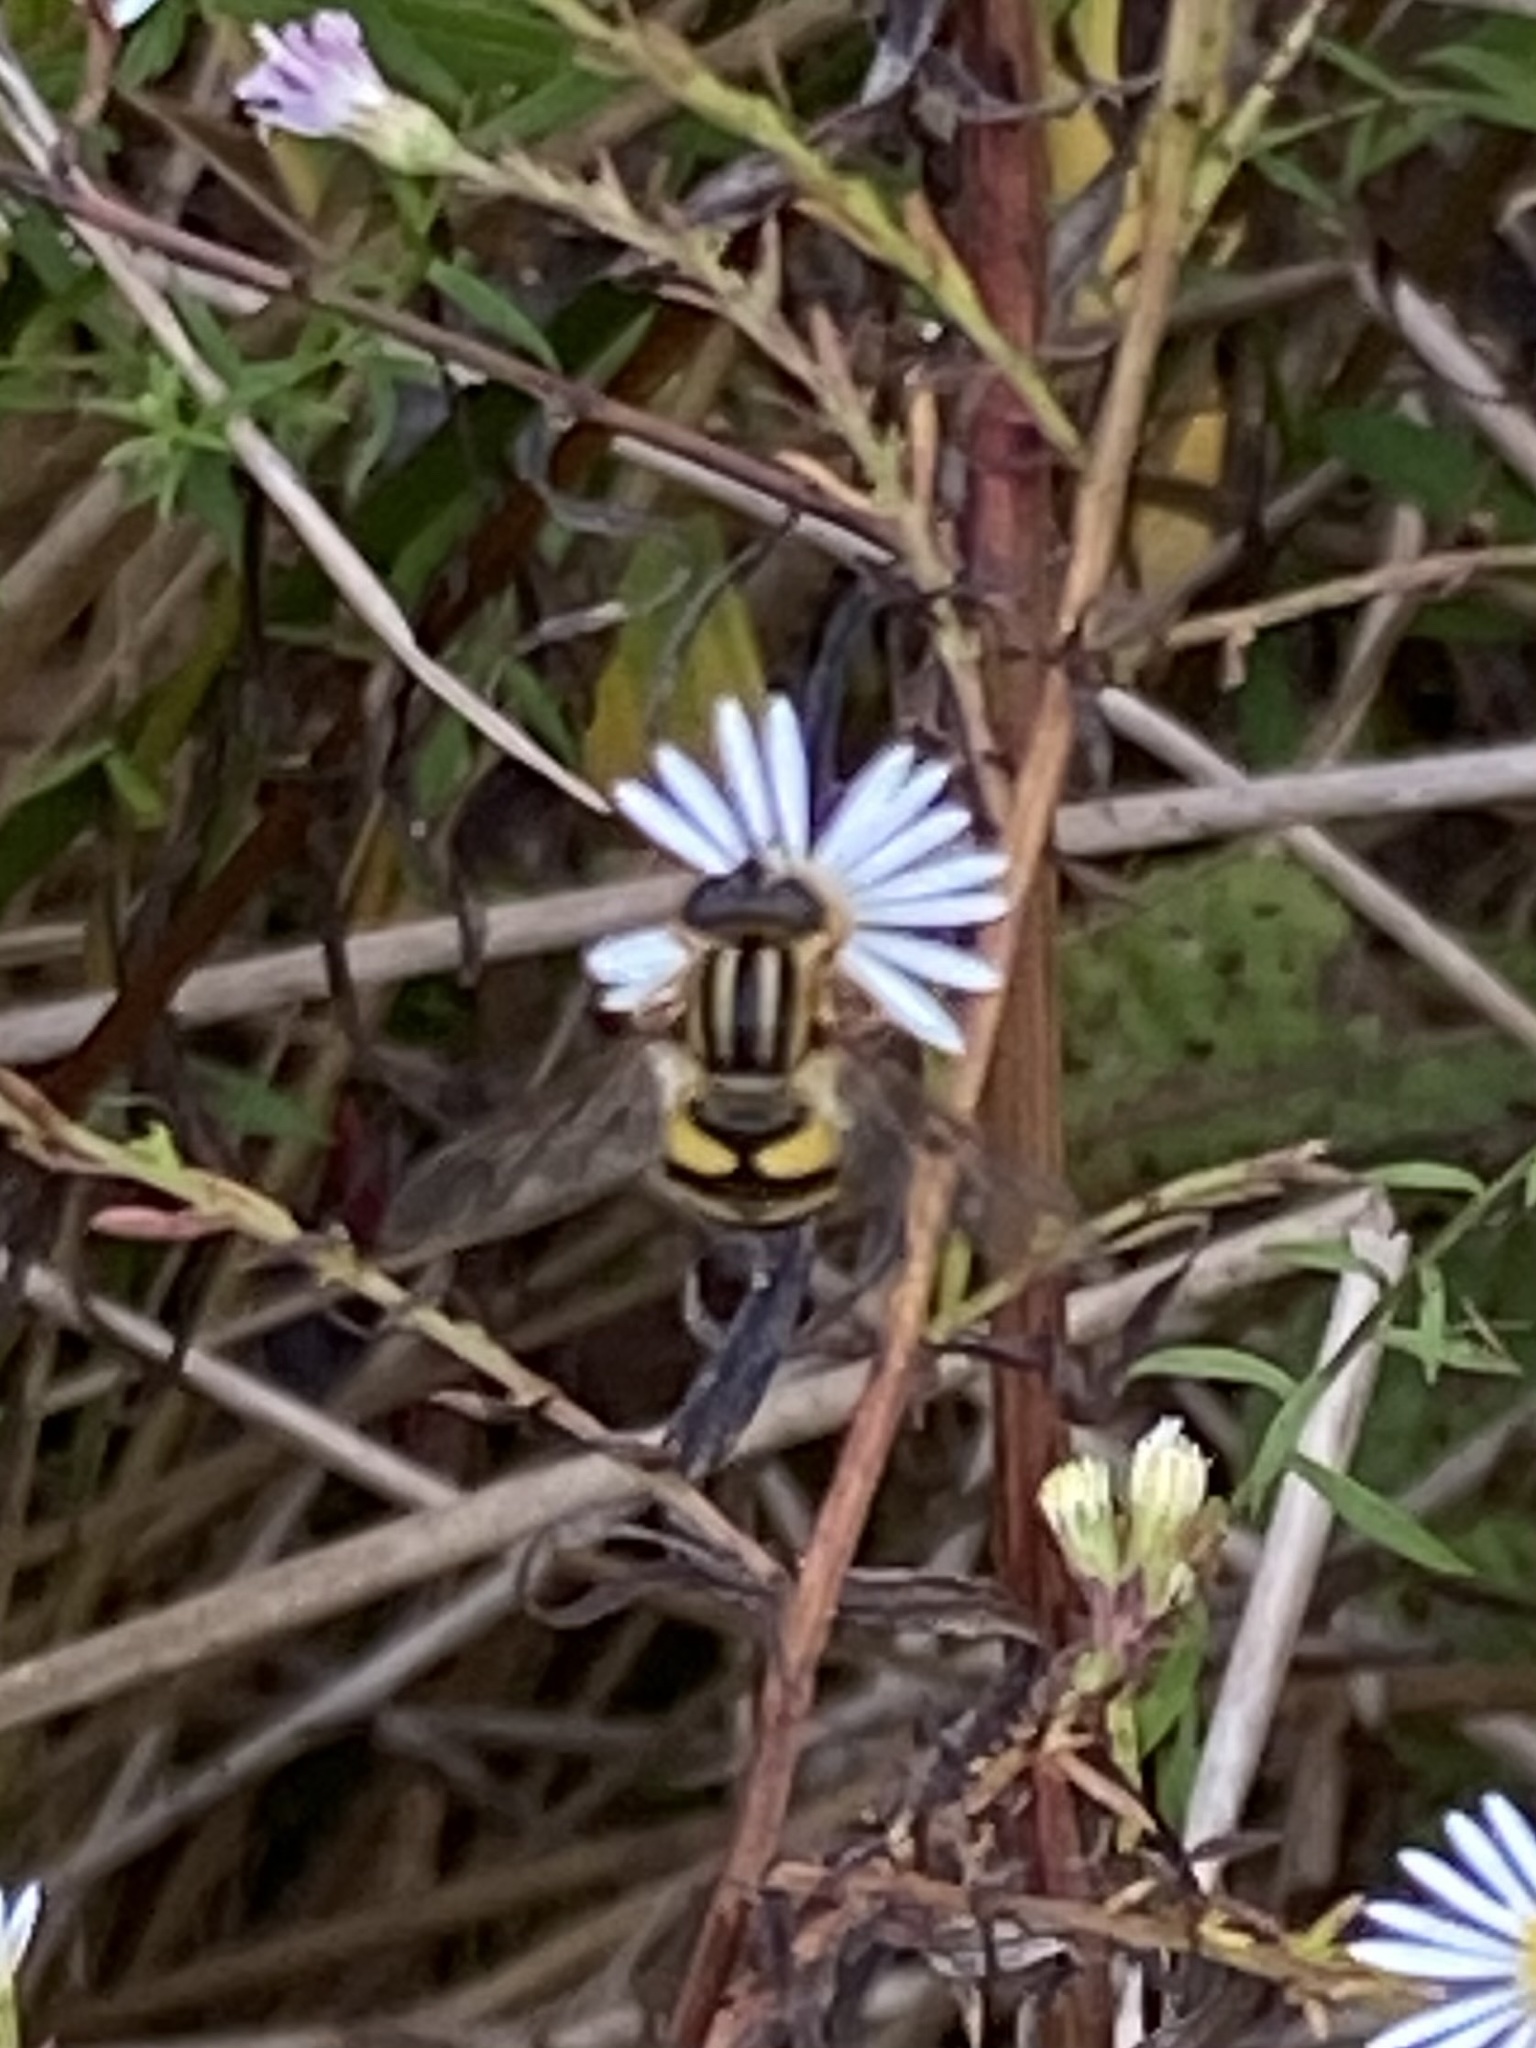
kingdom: Animalia
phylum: Arthropoda
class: Insecta
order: Diptera
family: Syrphidae
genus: Helophilus
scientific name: Helophilus fasciatus
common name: Narrow-headed marsh fly
